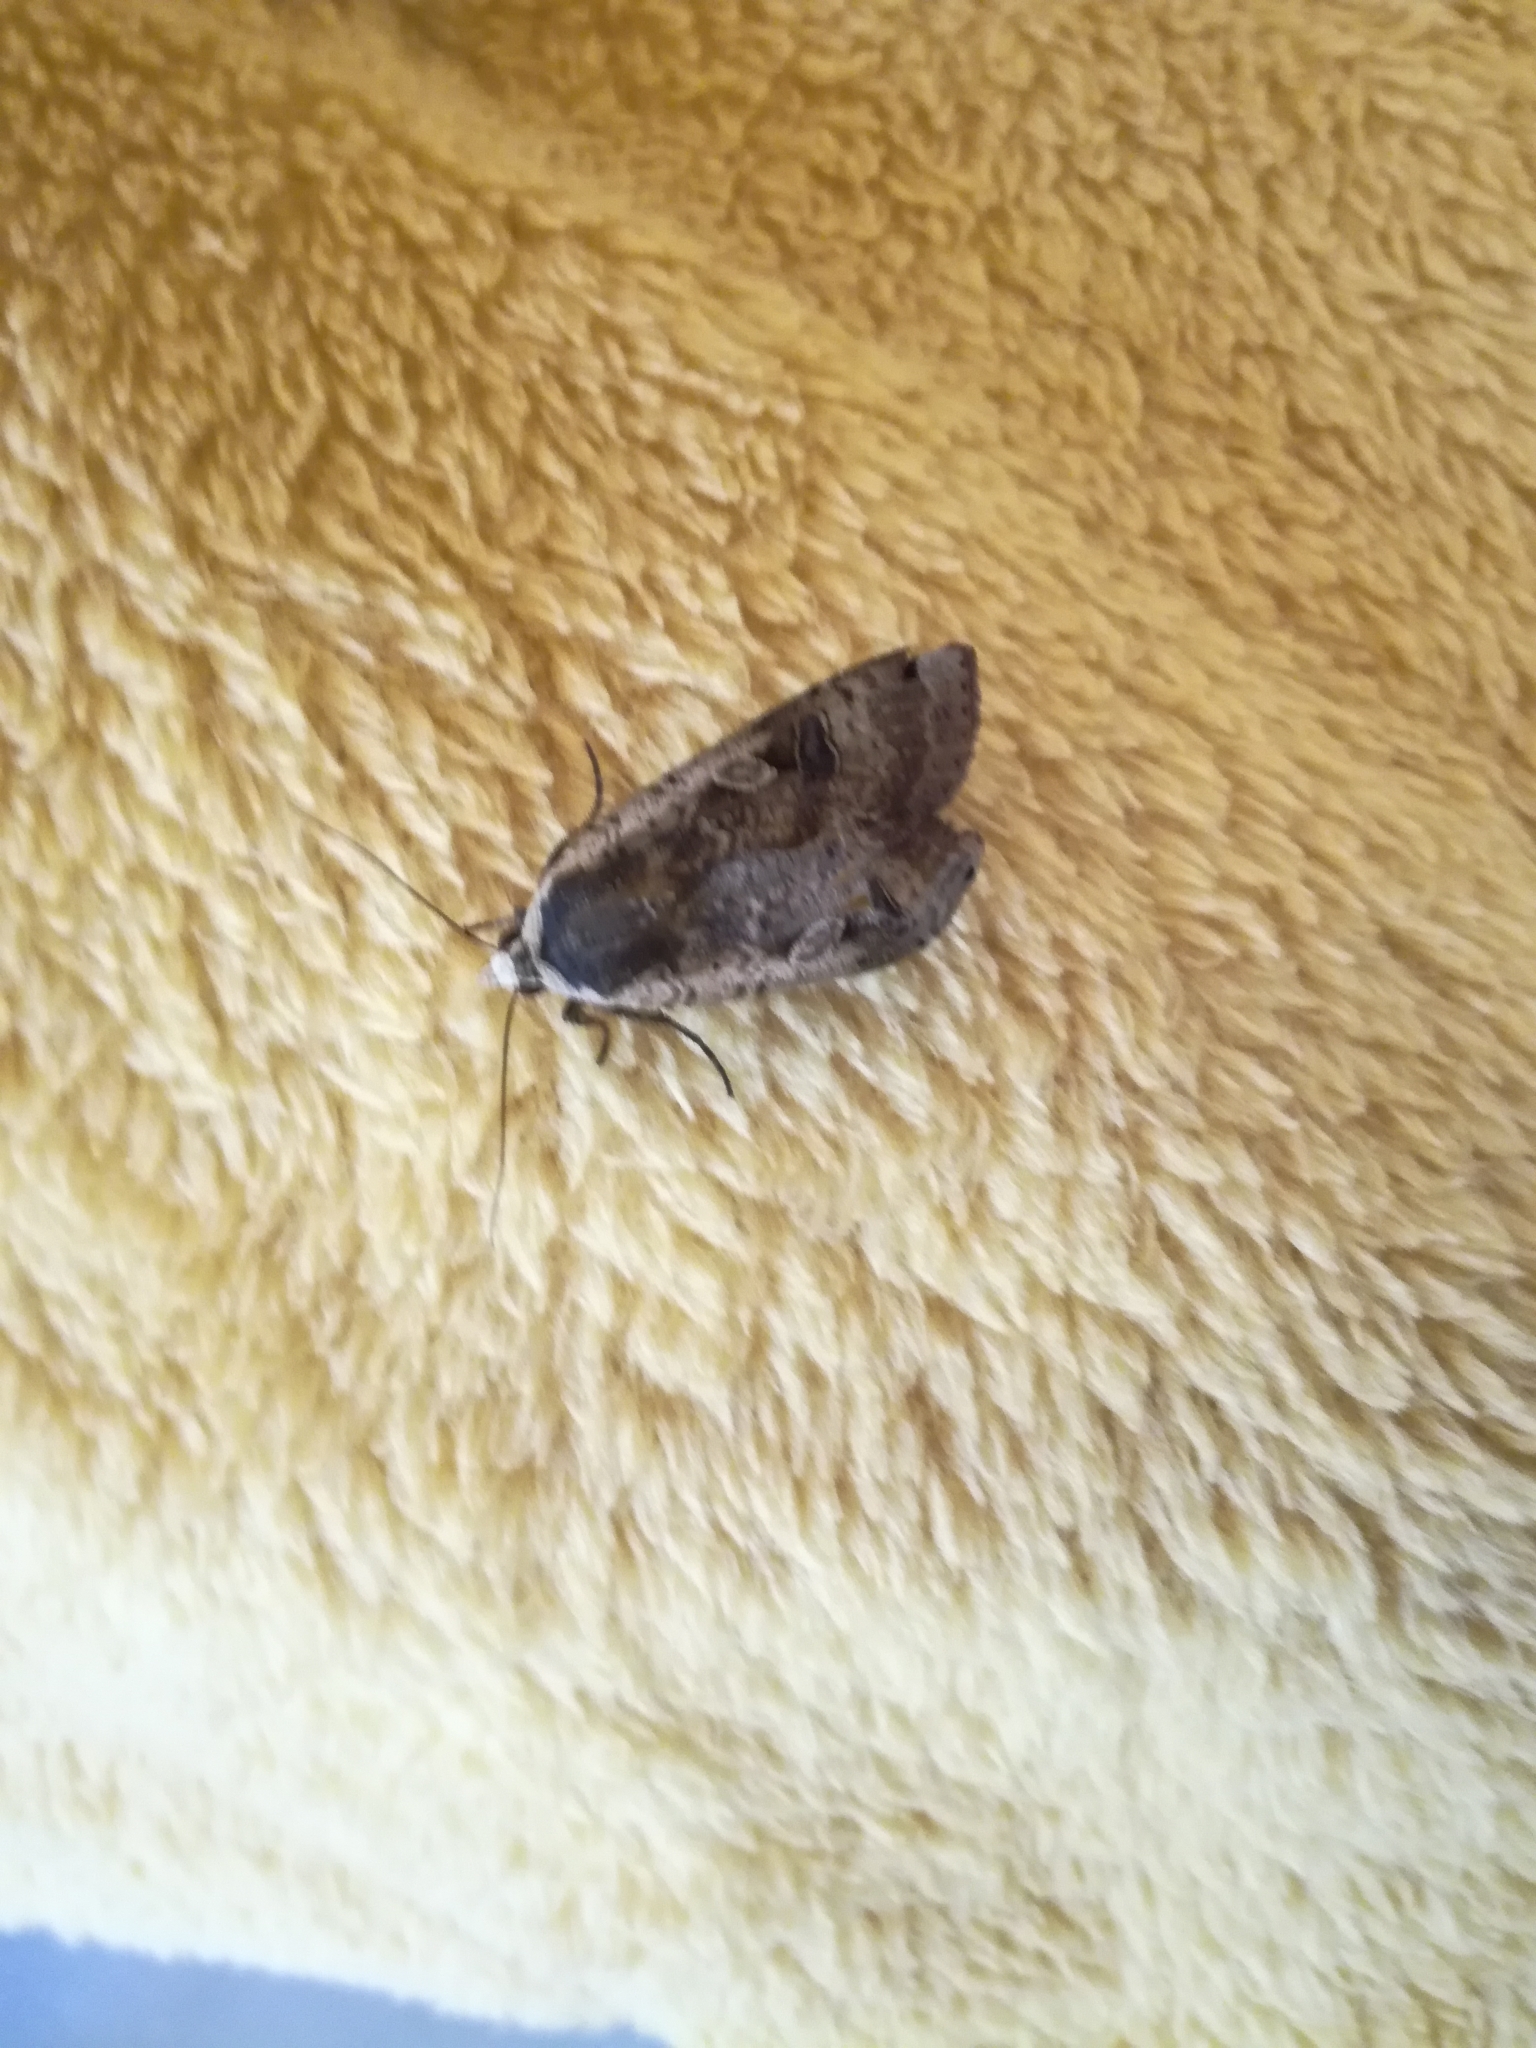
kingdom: Animalia
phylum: Arthropoda
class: Insecta
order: Lepidoptera
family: Noctuidae
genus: Noctua
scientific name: Noctua pronuba
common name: Large yellow underwing
